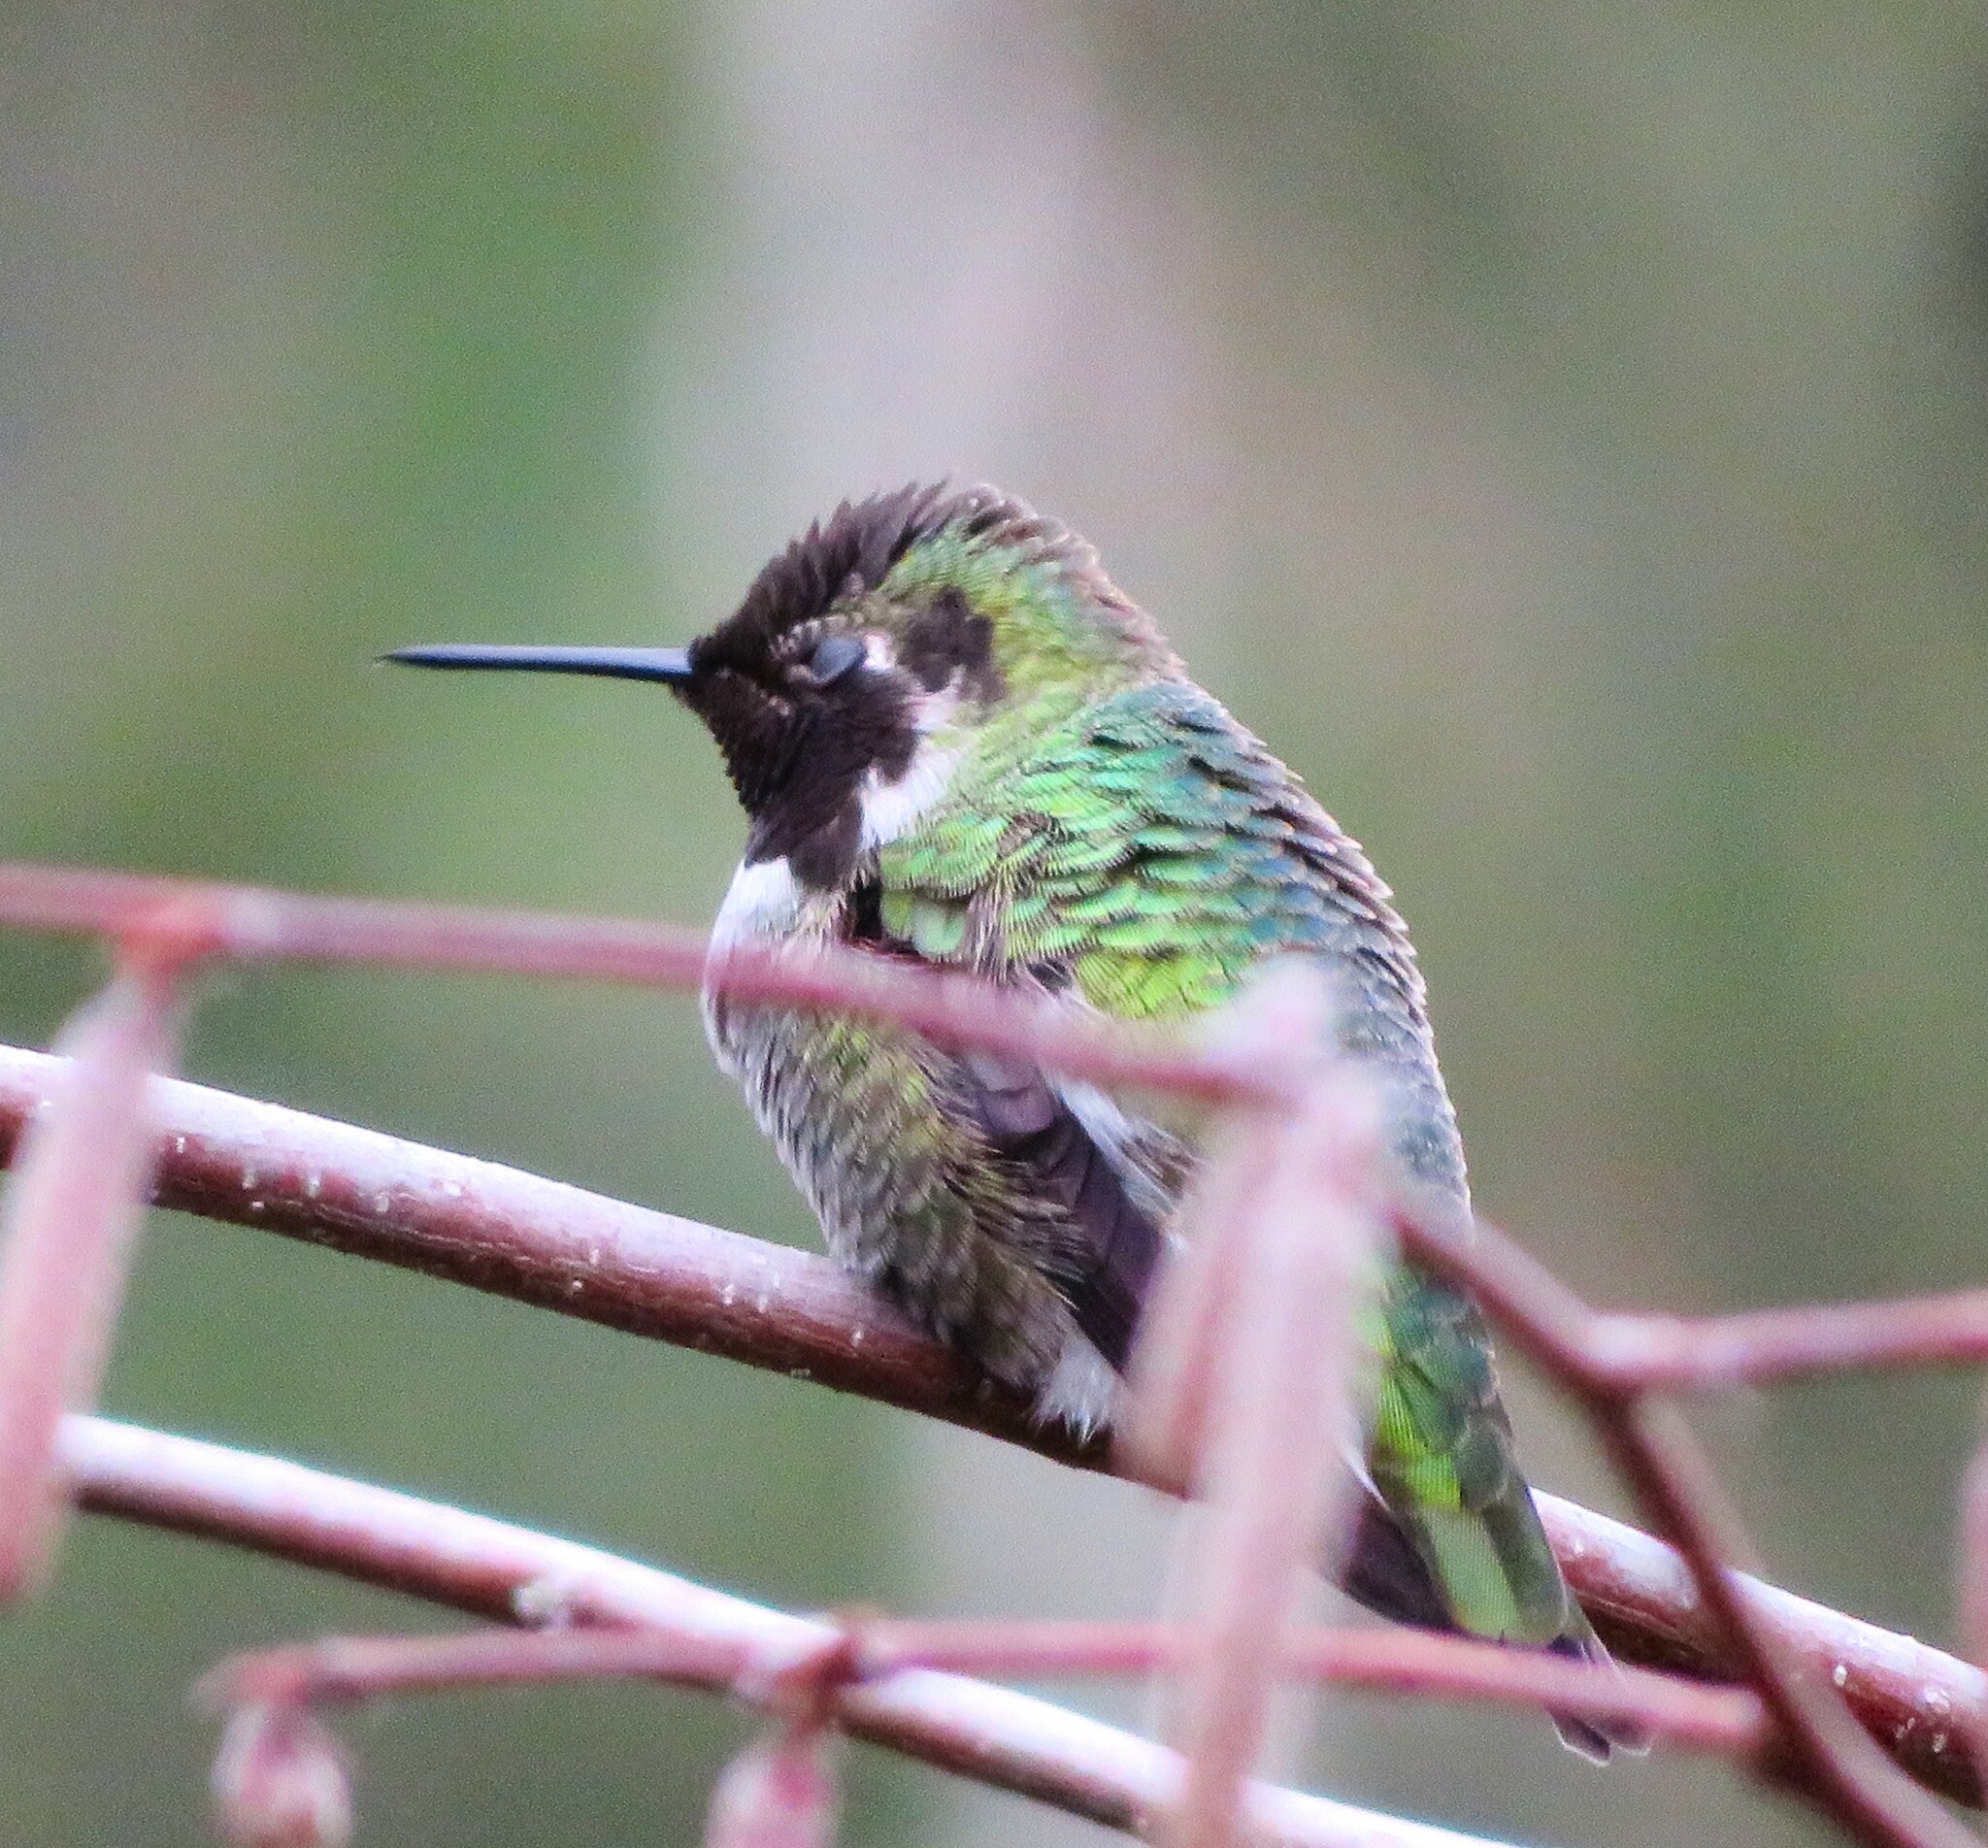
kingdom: Animalia
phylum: Chordata
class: Aves
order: Apodiformes
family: Trochilidae
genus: Calypte
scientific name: Calypte anna
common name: Anna's hummingbird
